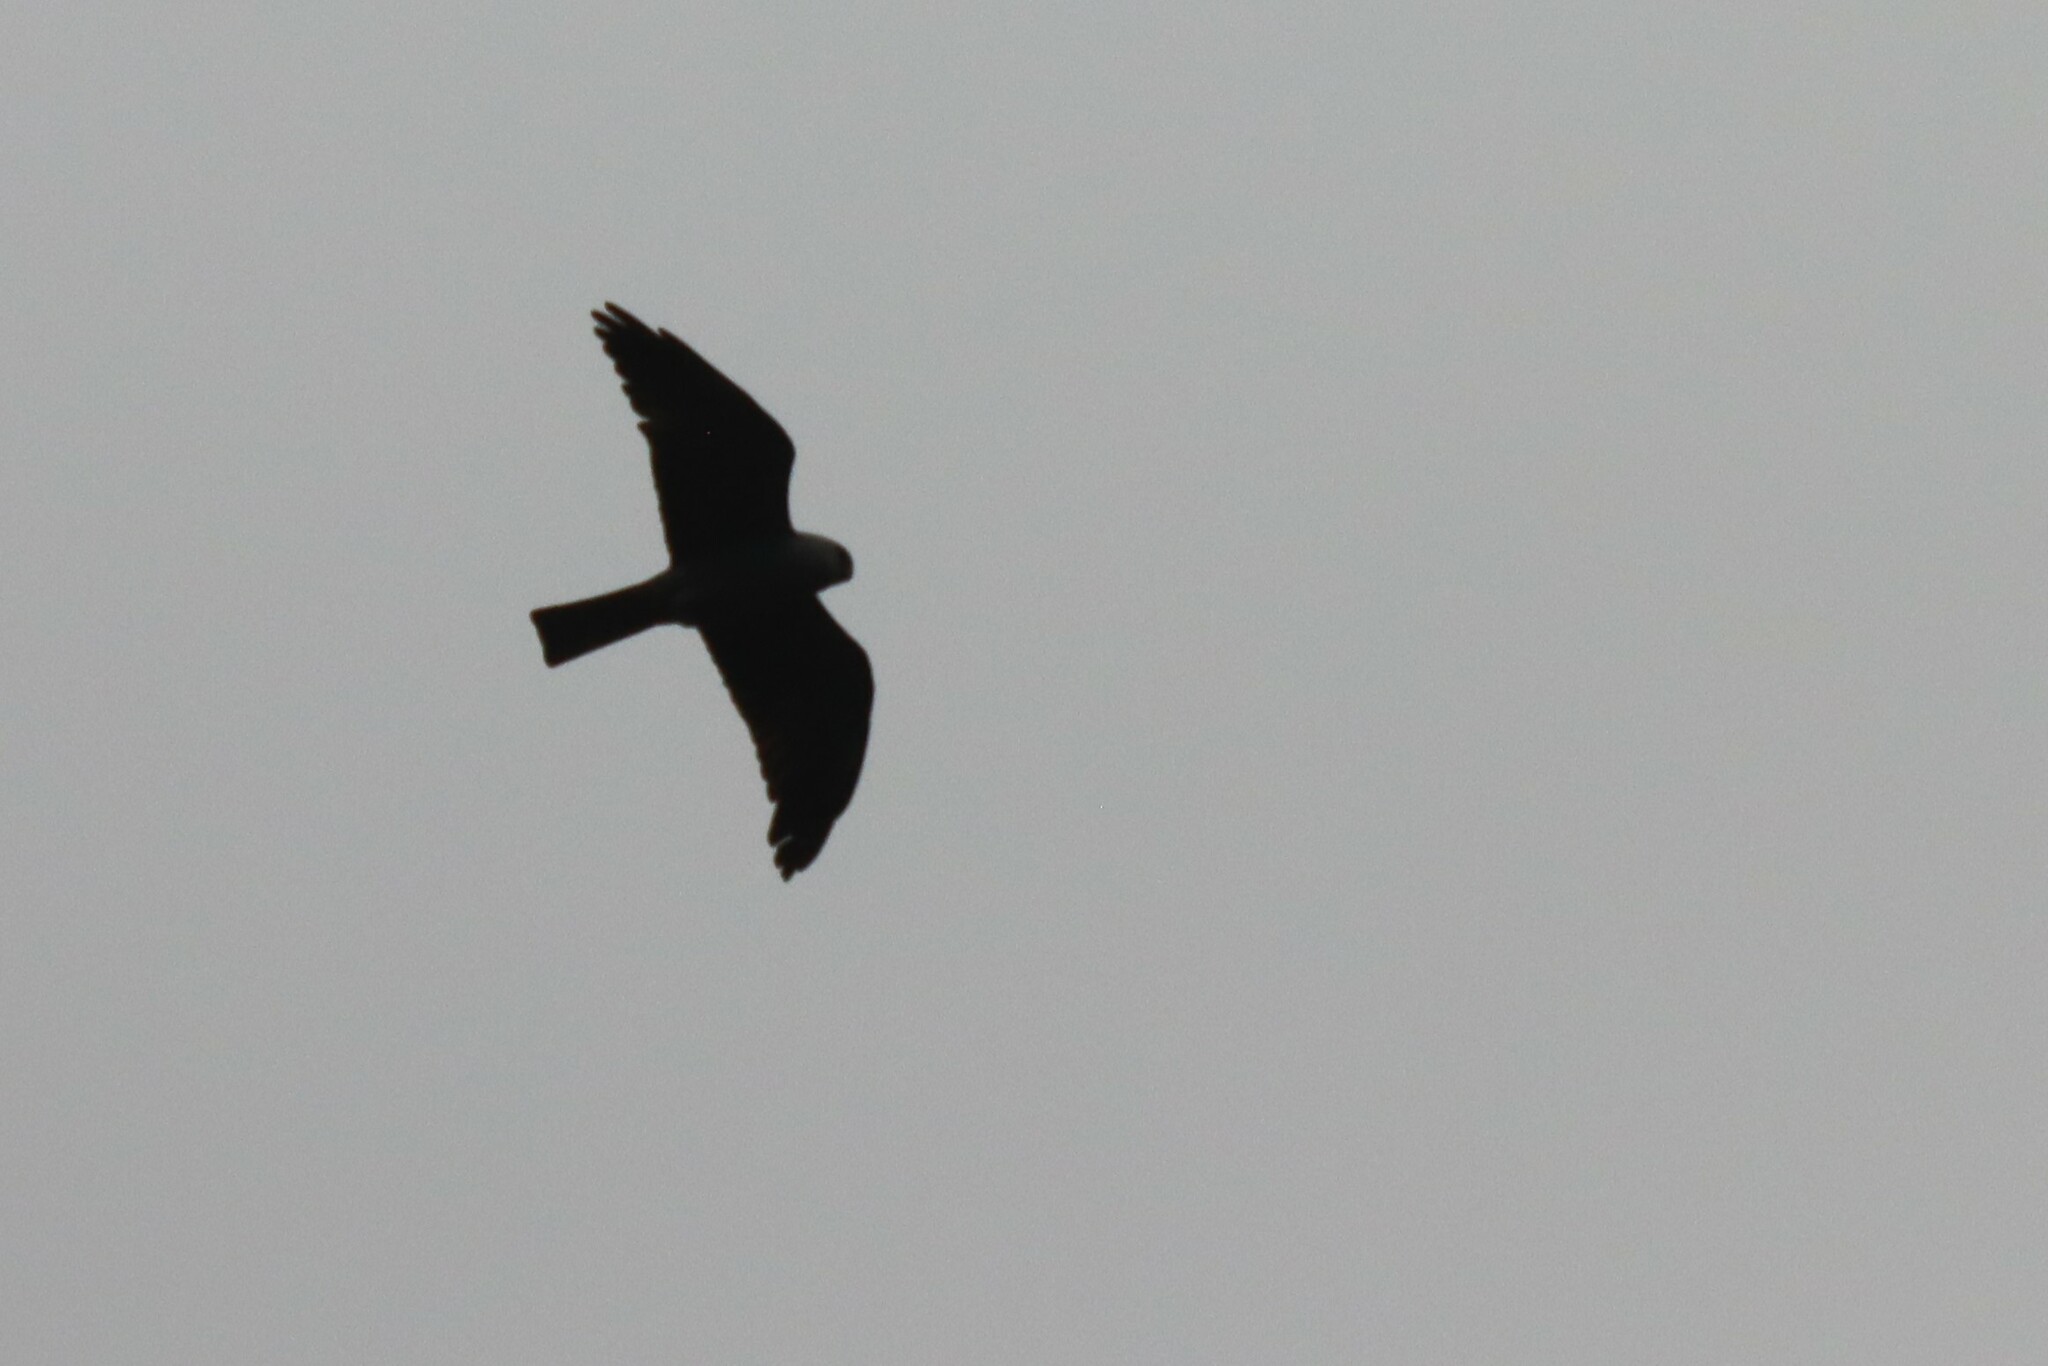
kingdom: Animalia
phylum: Chordata
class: Aves
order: Accipitriformes
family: Accipitridae
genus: Ictinia
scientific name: Ictinia mississippiensis
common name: Mississippi kite
